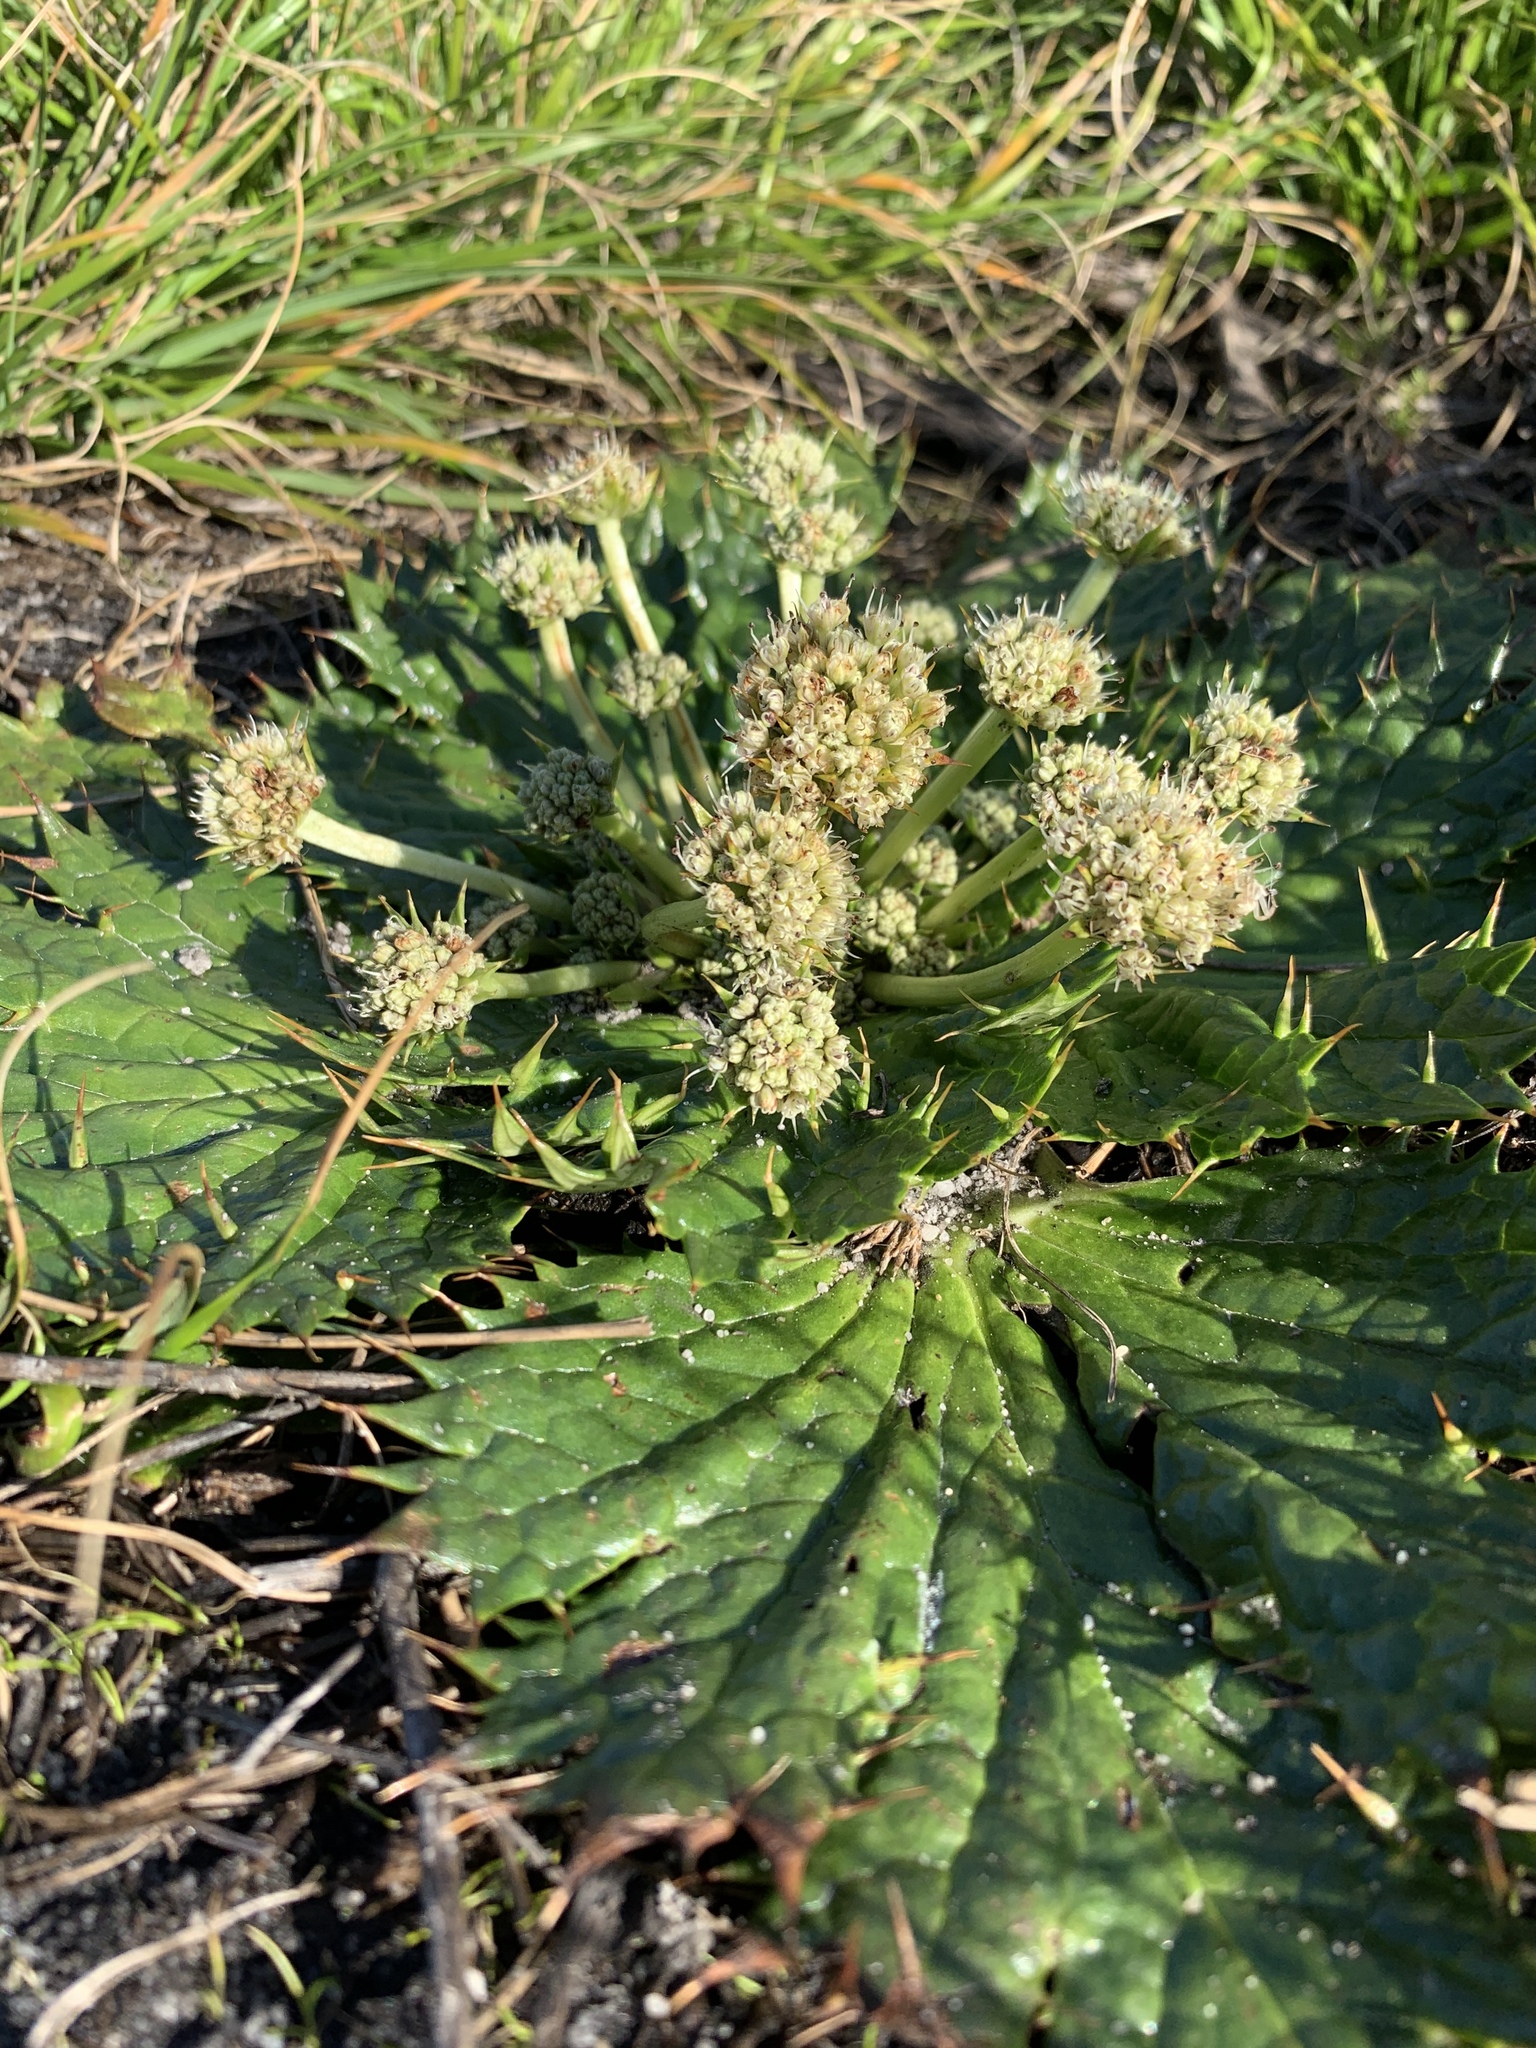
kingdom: Plantae
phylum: Tracheophyta
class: Magnoliopsida
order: Apiales
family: Apiaceae
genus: Arctopus
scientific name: Arctopus echinatus
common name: Platdoring
